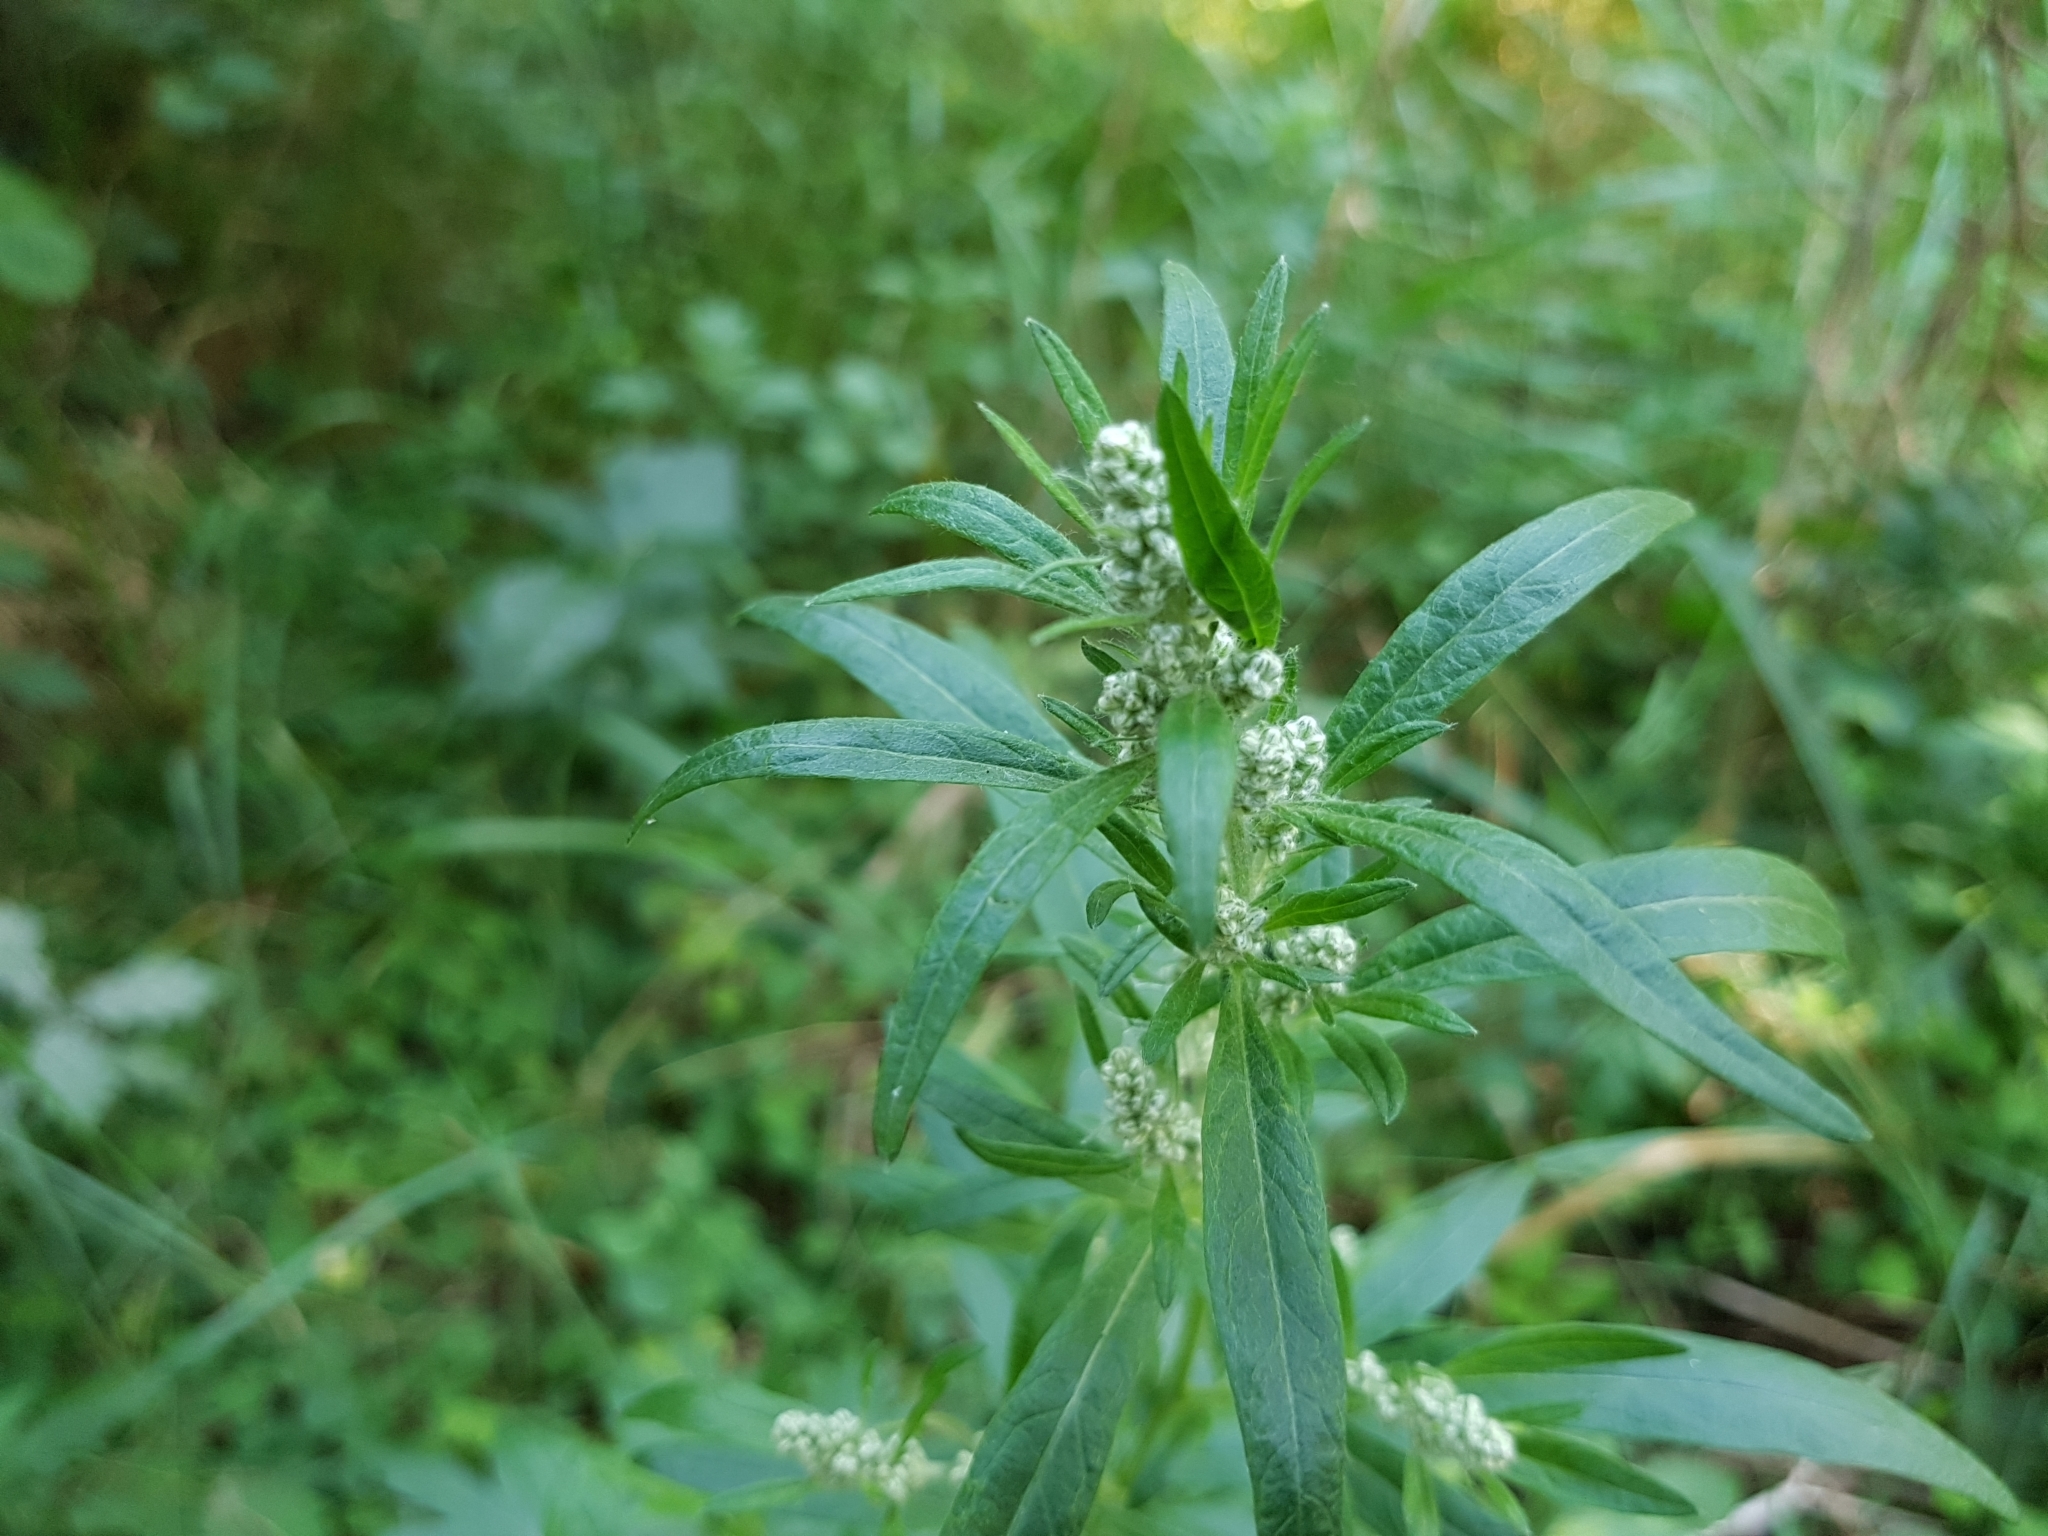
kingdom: Plantae
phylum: Tracheophyta
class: Magnoliopsida
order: Asterales
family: Asteraceae
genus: Artemisia
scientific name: Artemisia vulgaris
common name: Mugwort
